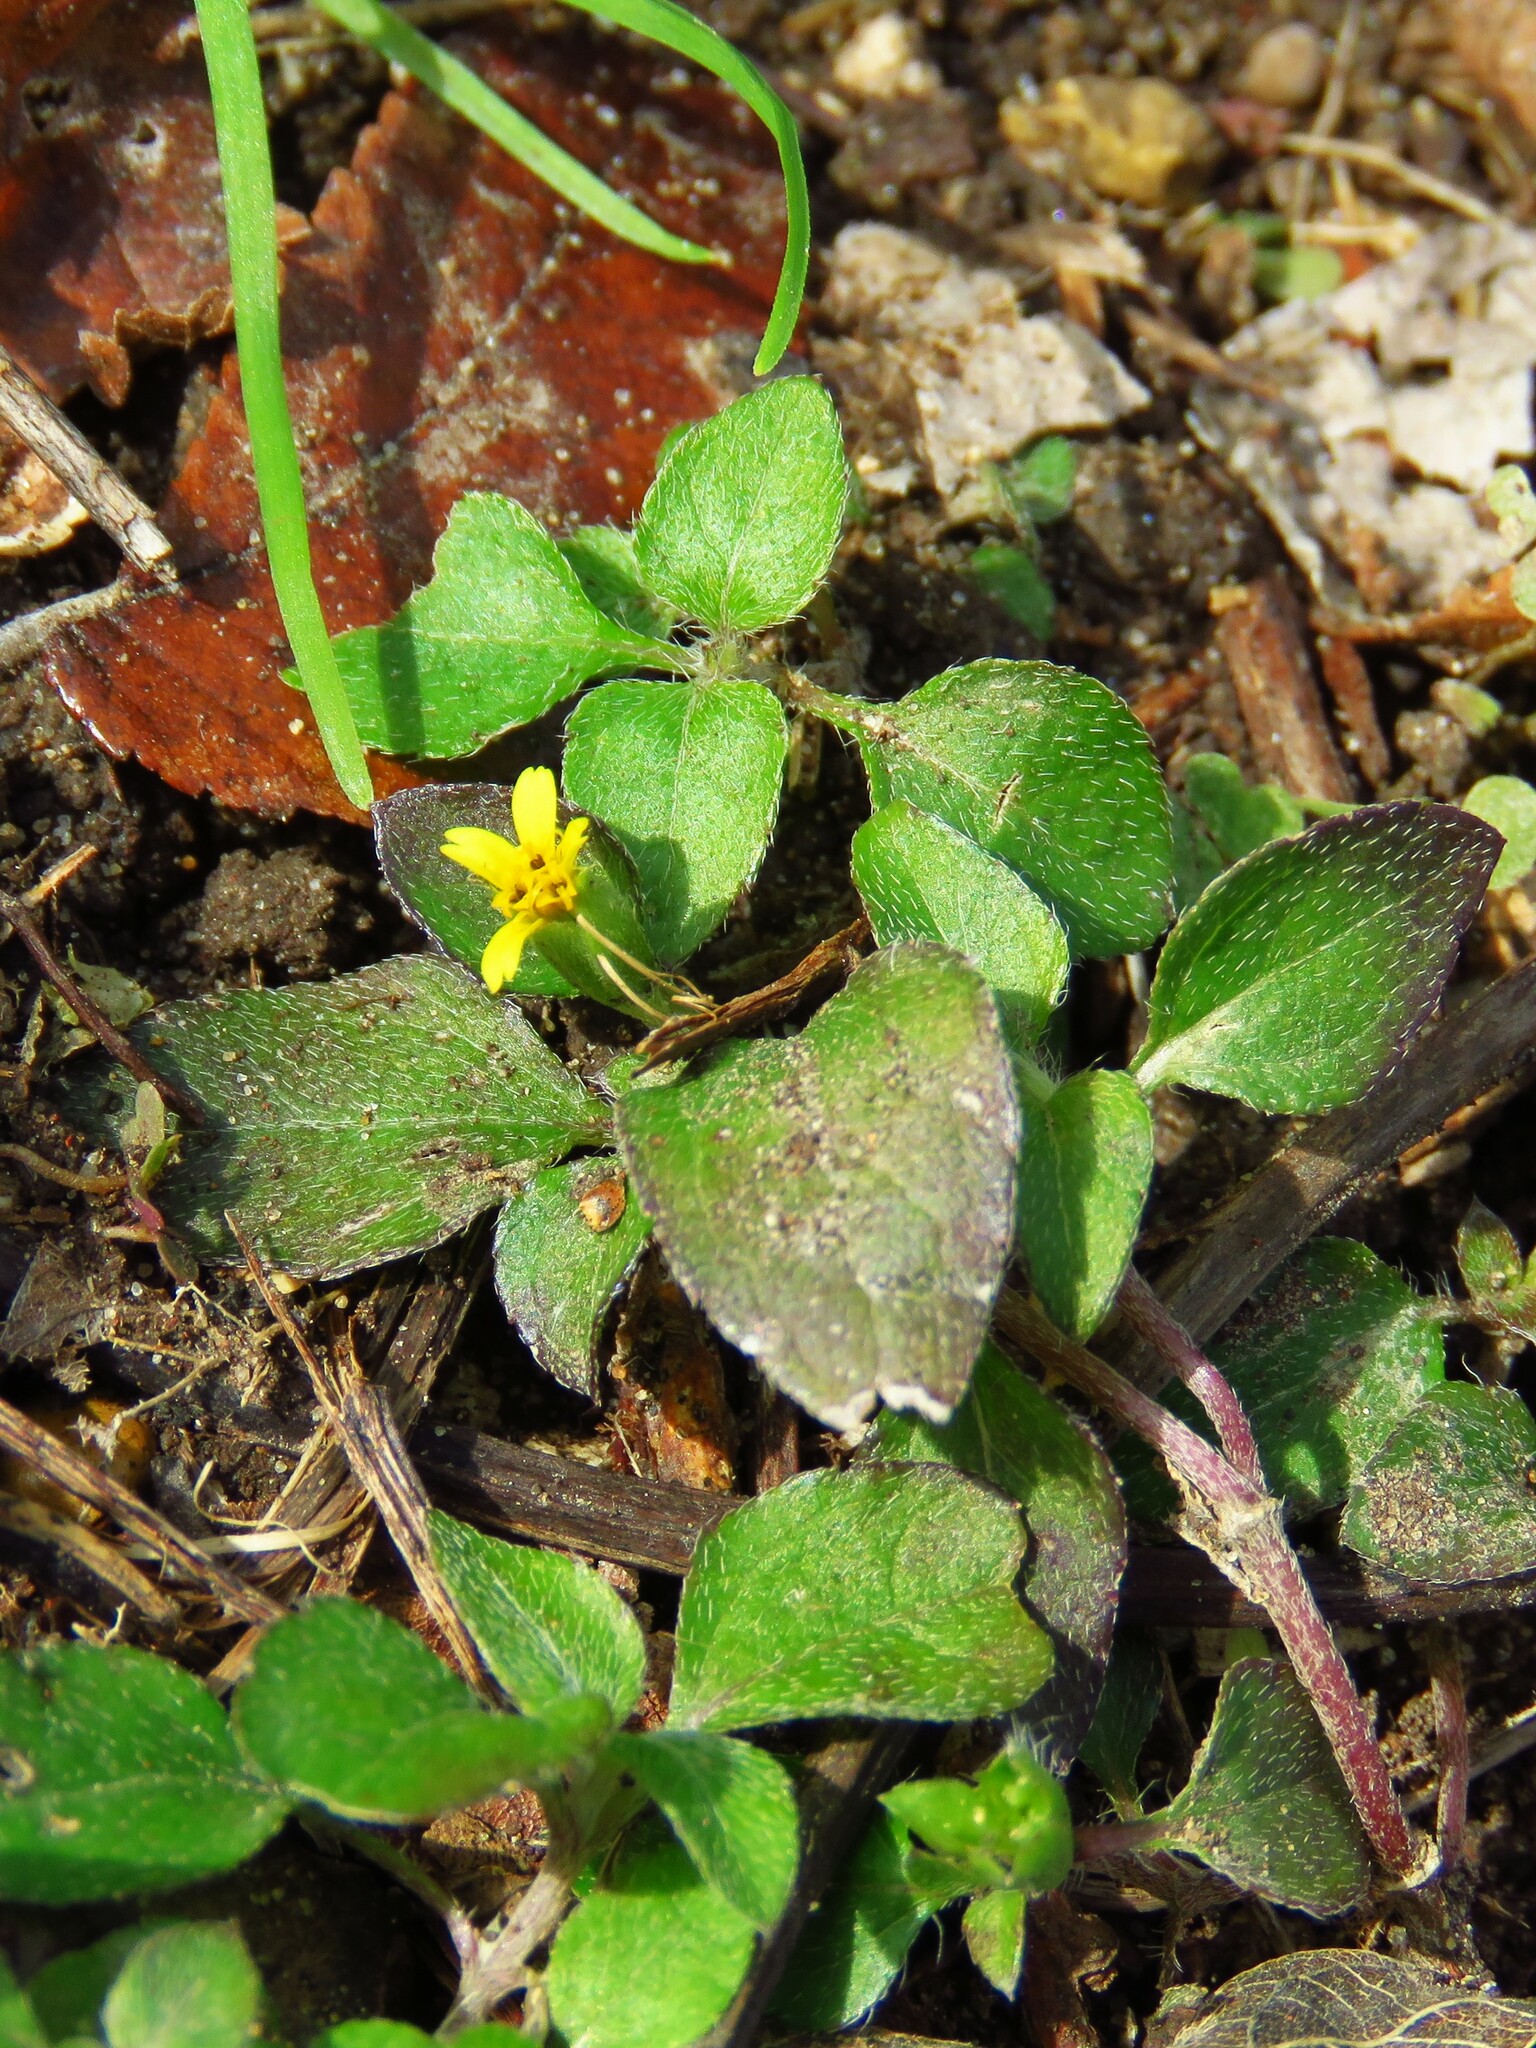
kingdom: Plantae
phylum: Tracheophyta
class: Magnoliopsida
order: Asterales
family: Asteraceae
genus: Calyptocarpus
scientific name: Calyptocarpus vialis
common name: Straggler daisy
